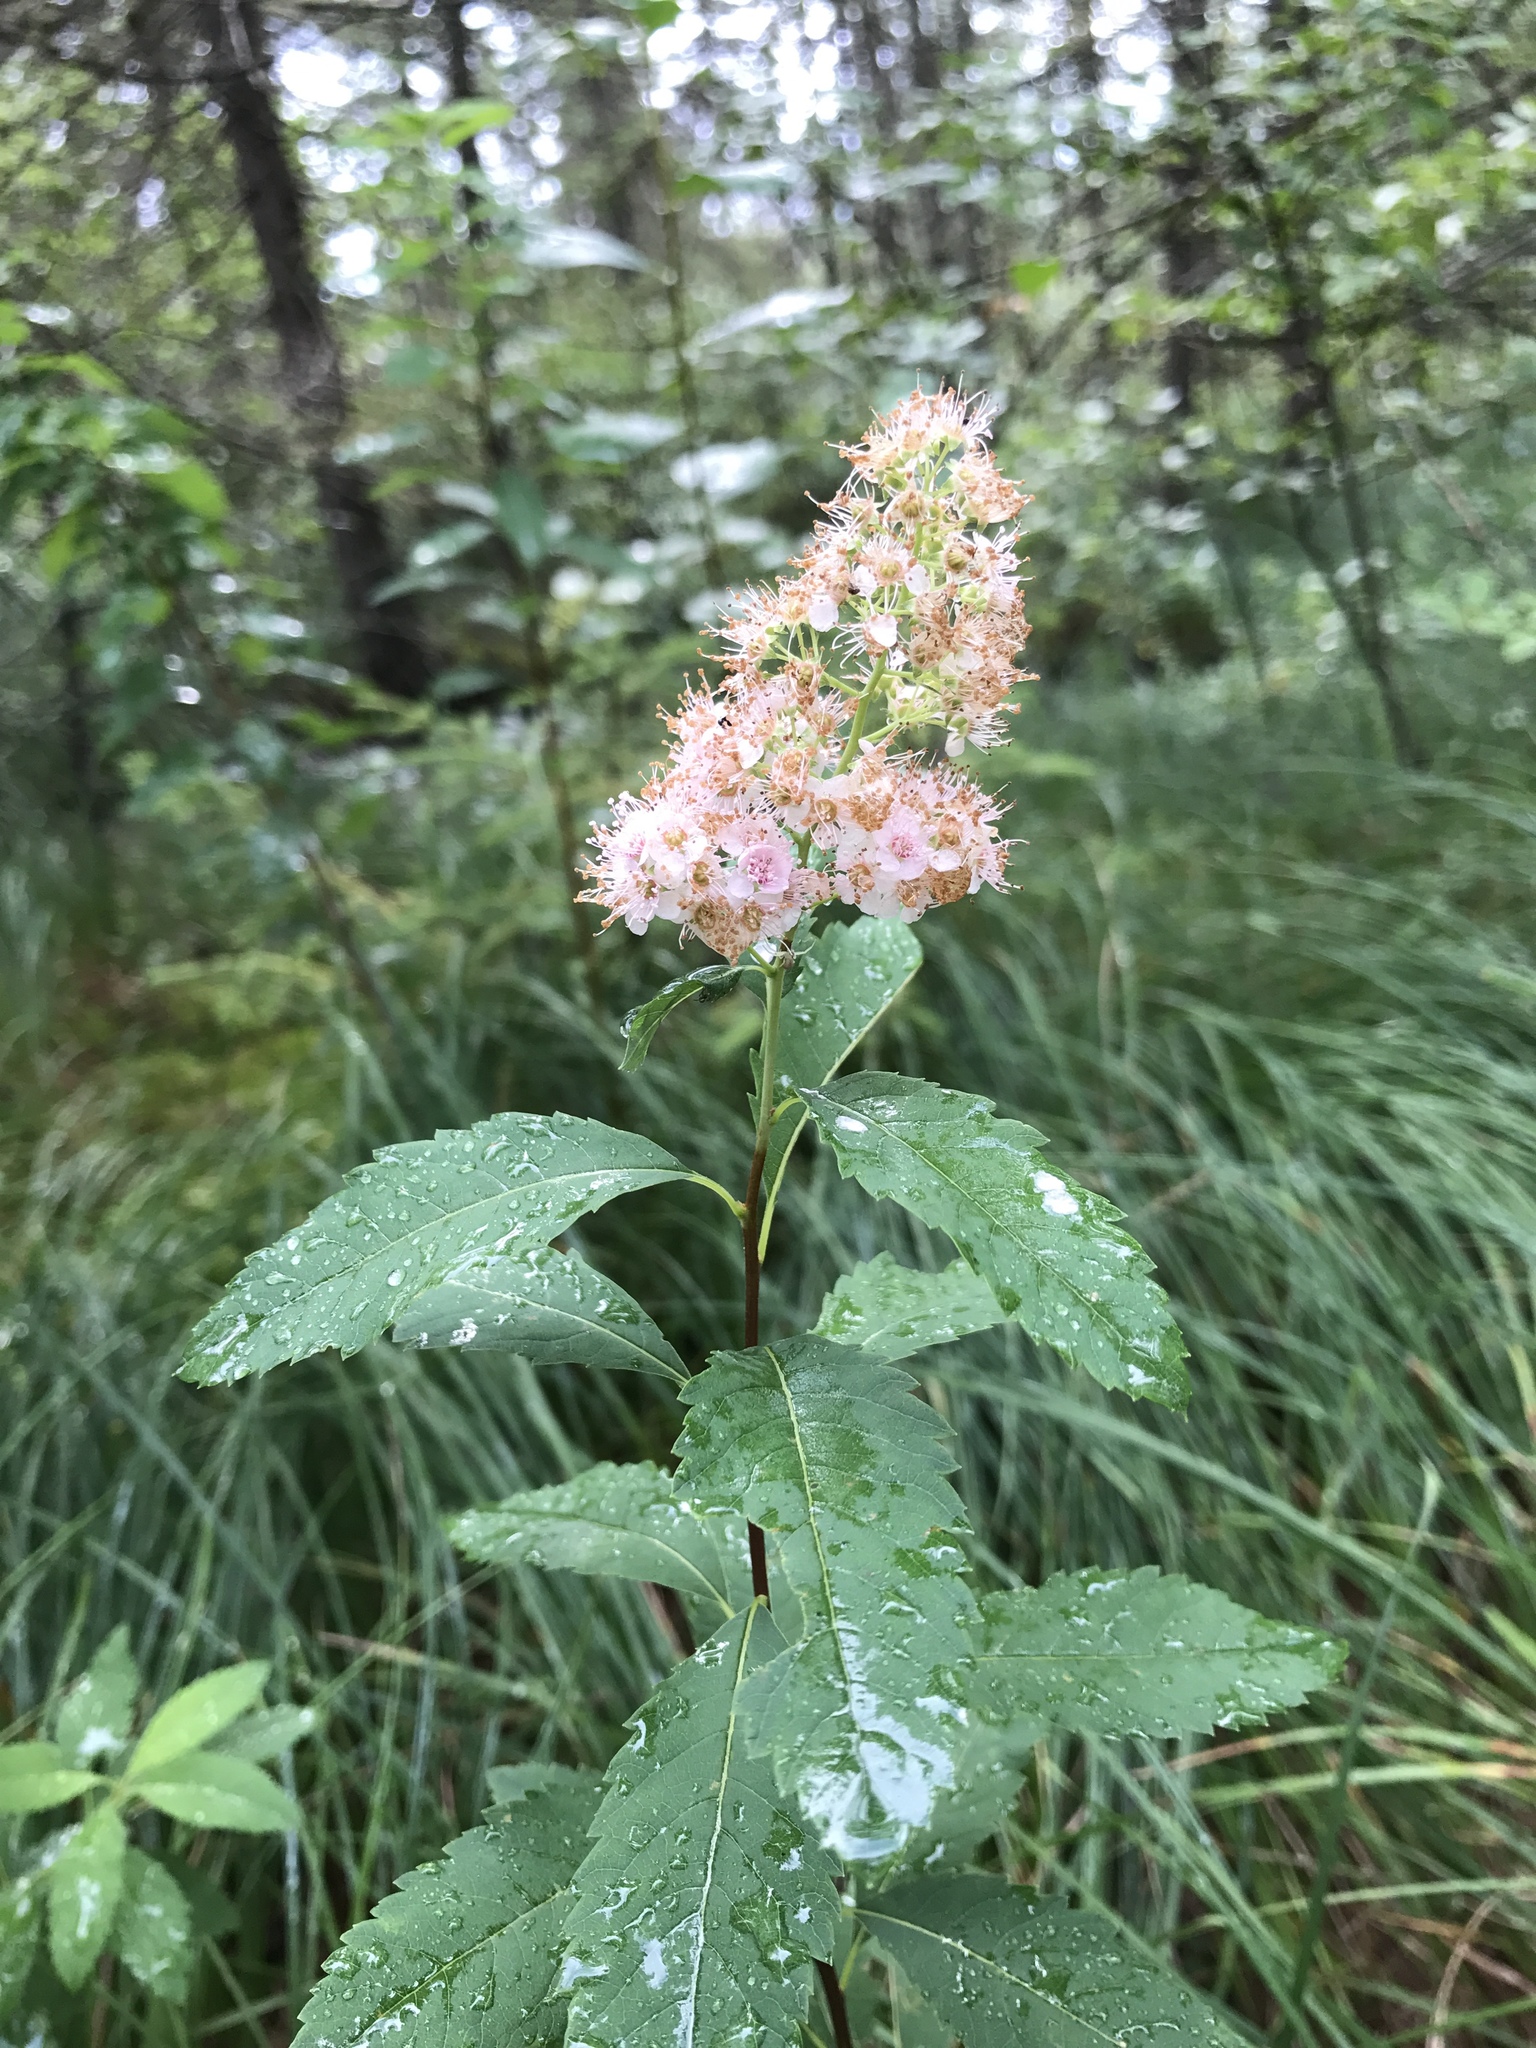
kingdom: Plantae
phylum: Tracheophyta
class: Magnoliopsida
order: Rosales
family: Rosaceae
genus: Spiraea
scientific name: Spiraea alba
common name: Pale bridewort
